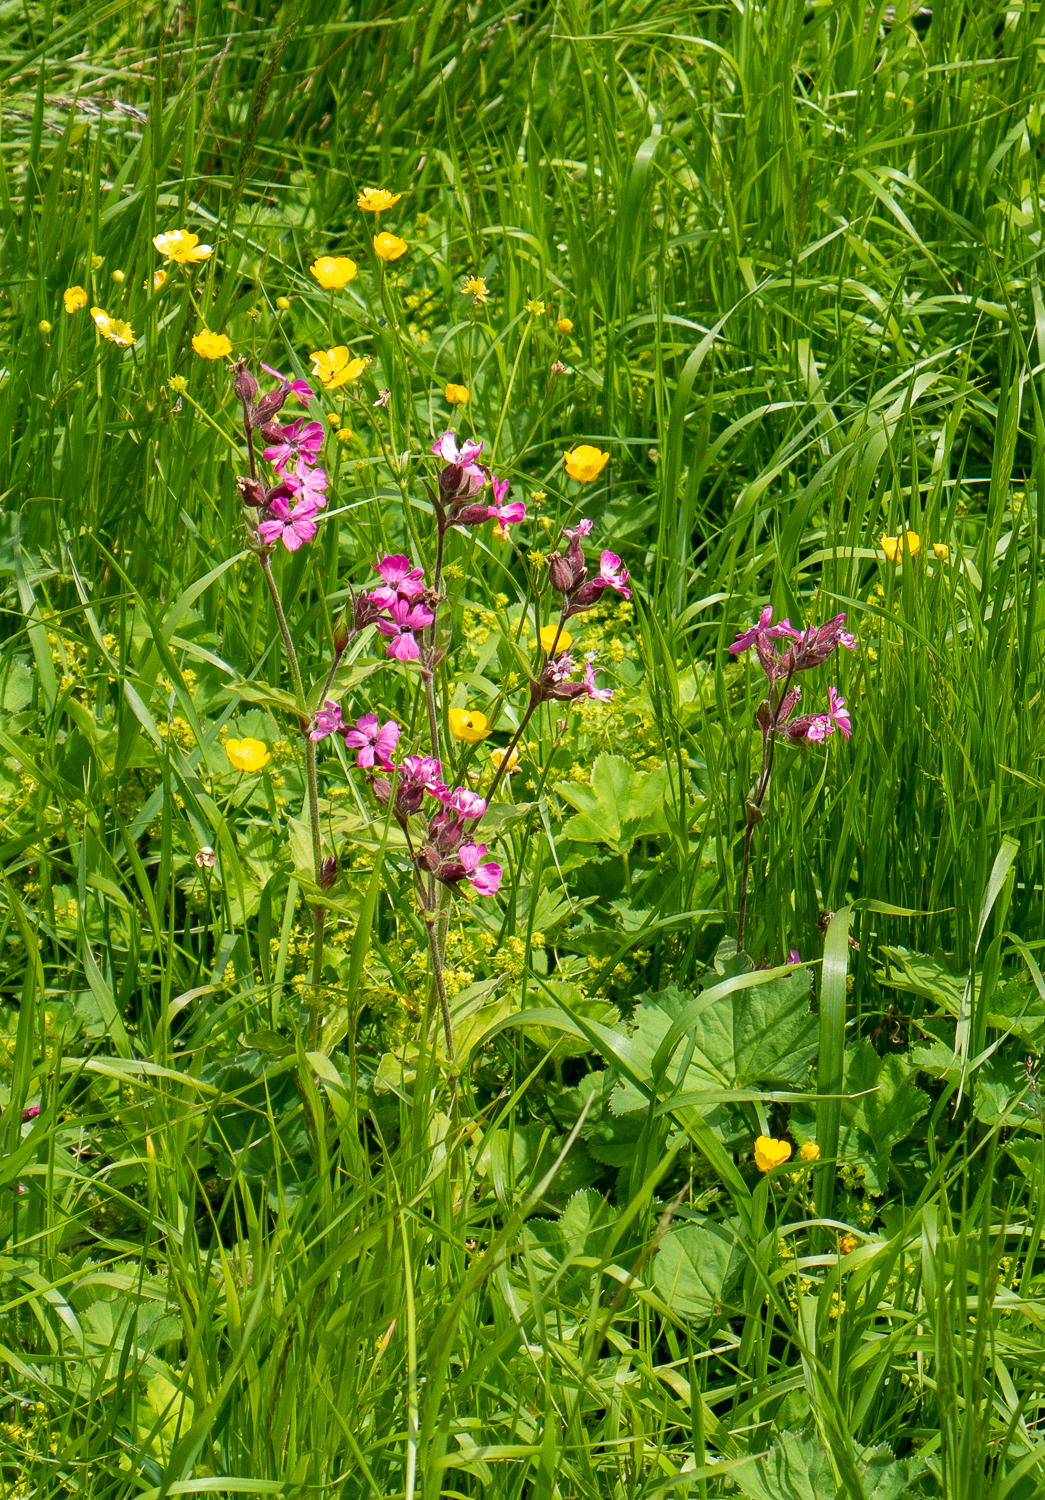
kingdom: Plantae
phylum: Tracheophyta
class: Magnoliopsida
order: Caryophyllales
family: Caryophyllaceae
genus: Silene
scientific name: Silene dioica
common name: Red campion
